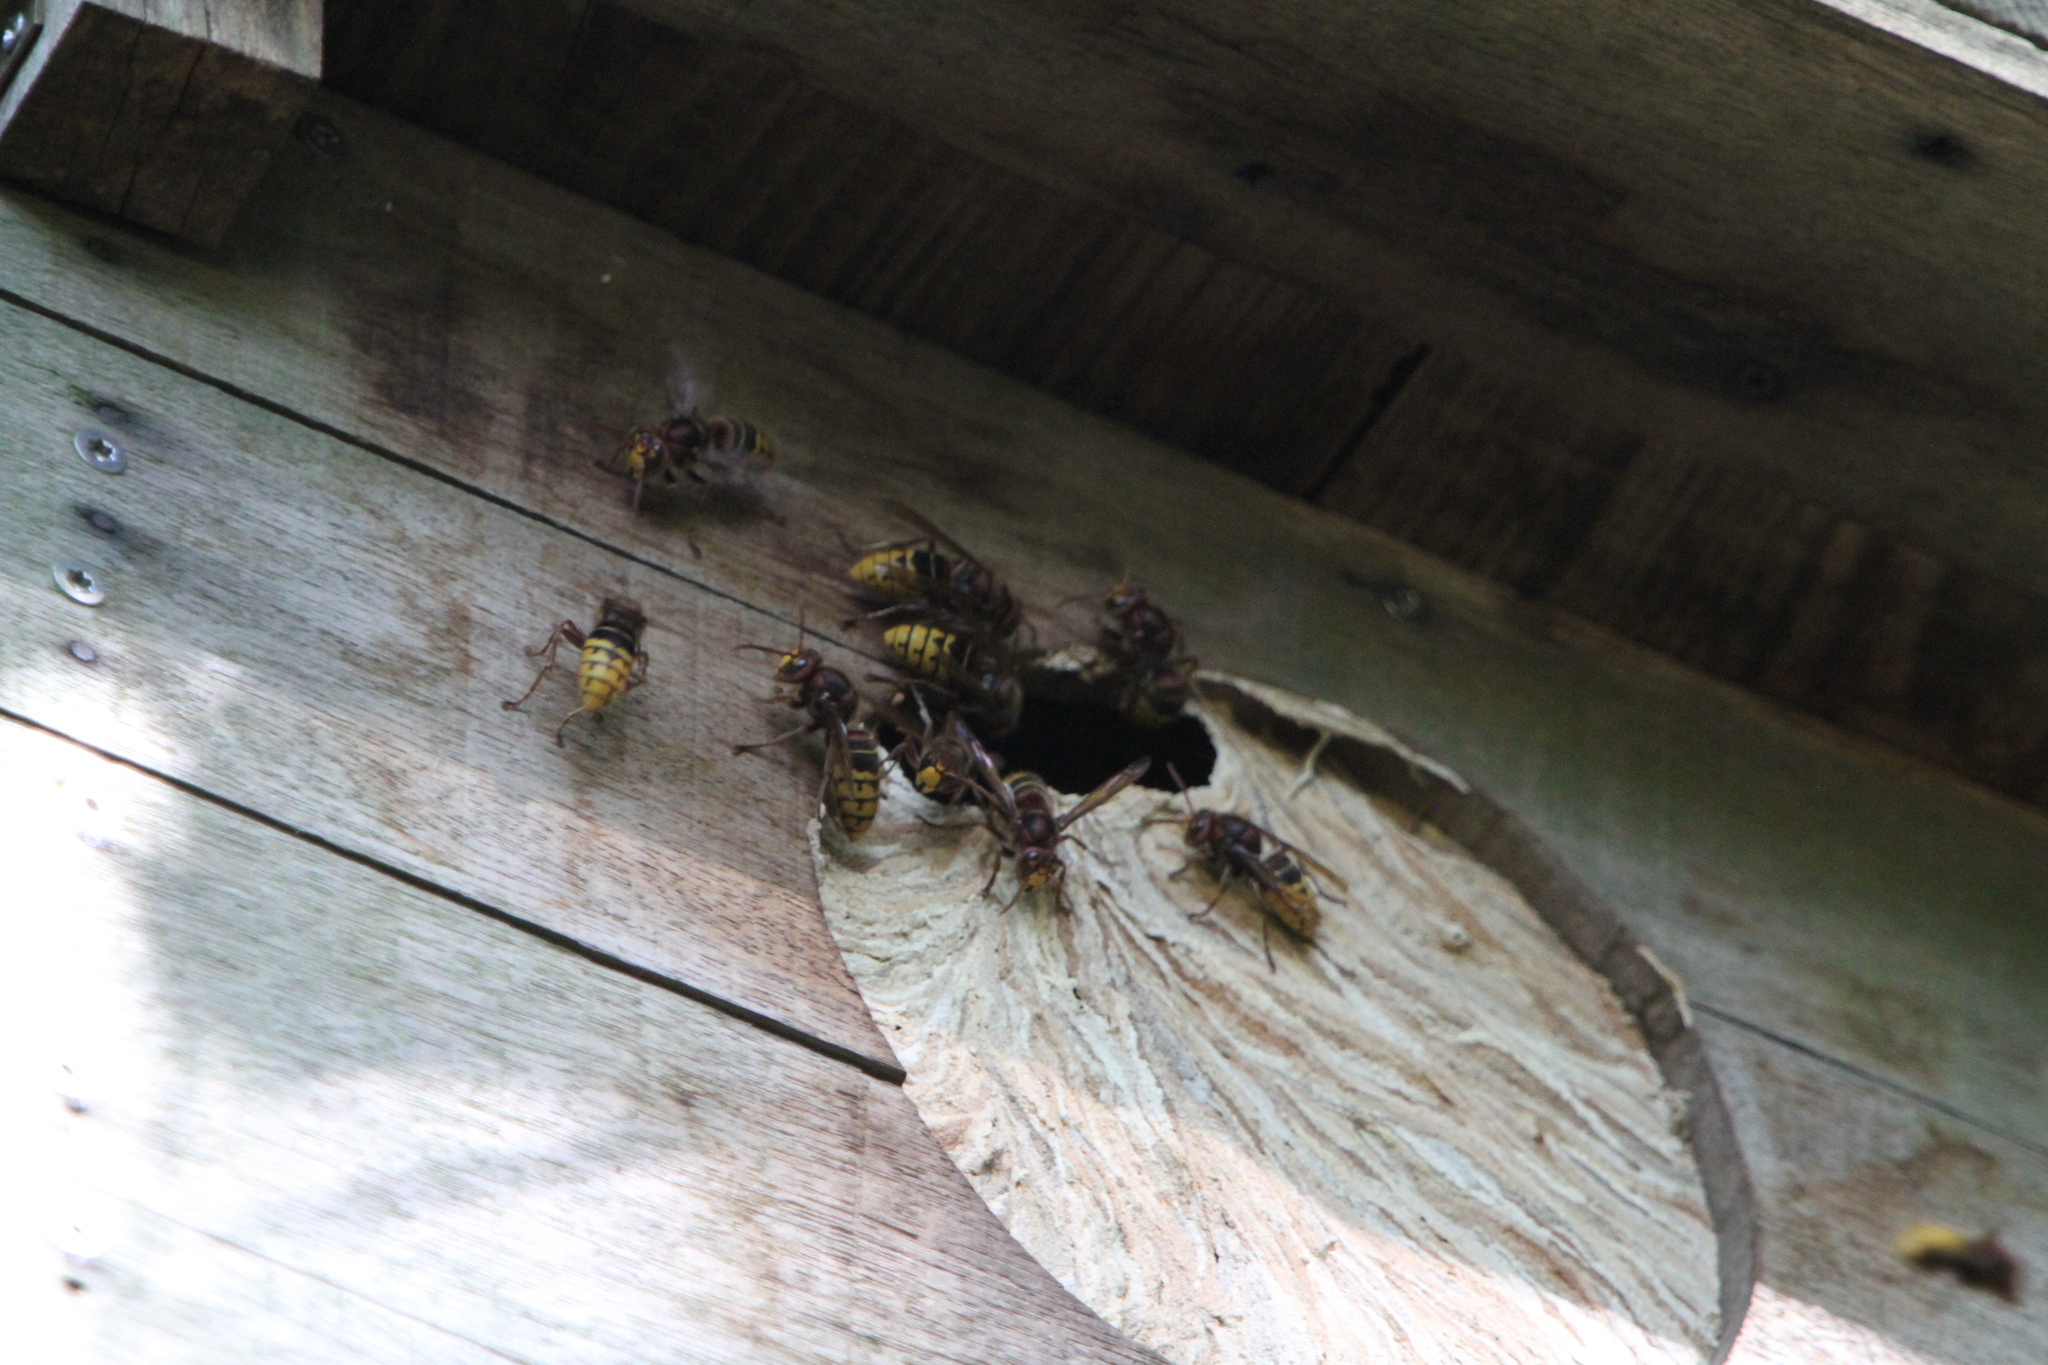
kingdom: Animalia
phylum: Arthropoda
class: Insecta
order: Hymenoptera
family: Vespidae
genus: Vespa
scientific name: Vespa crabro
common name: Hornet
